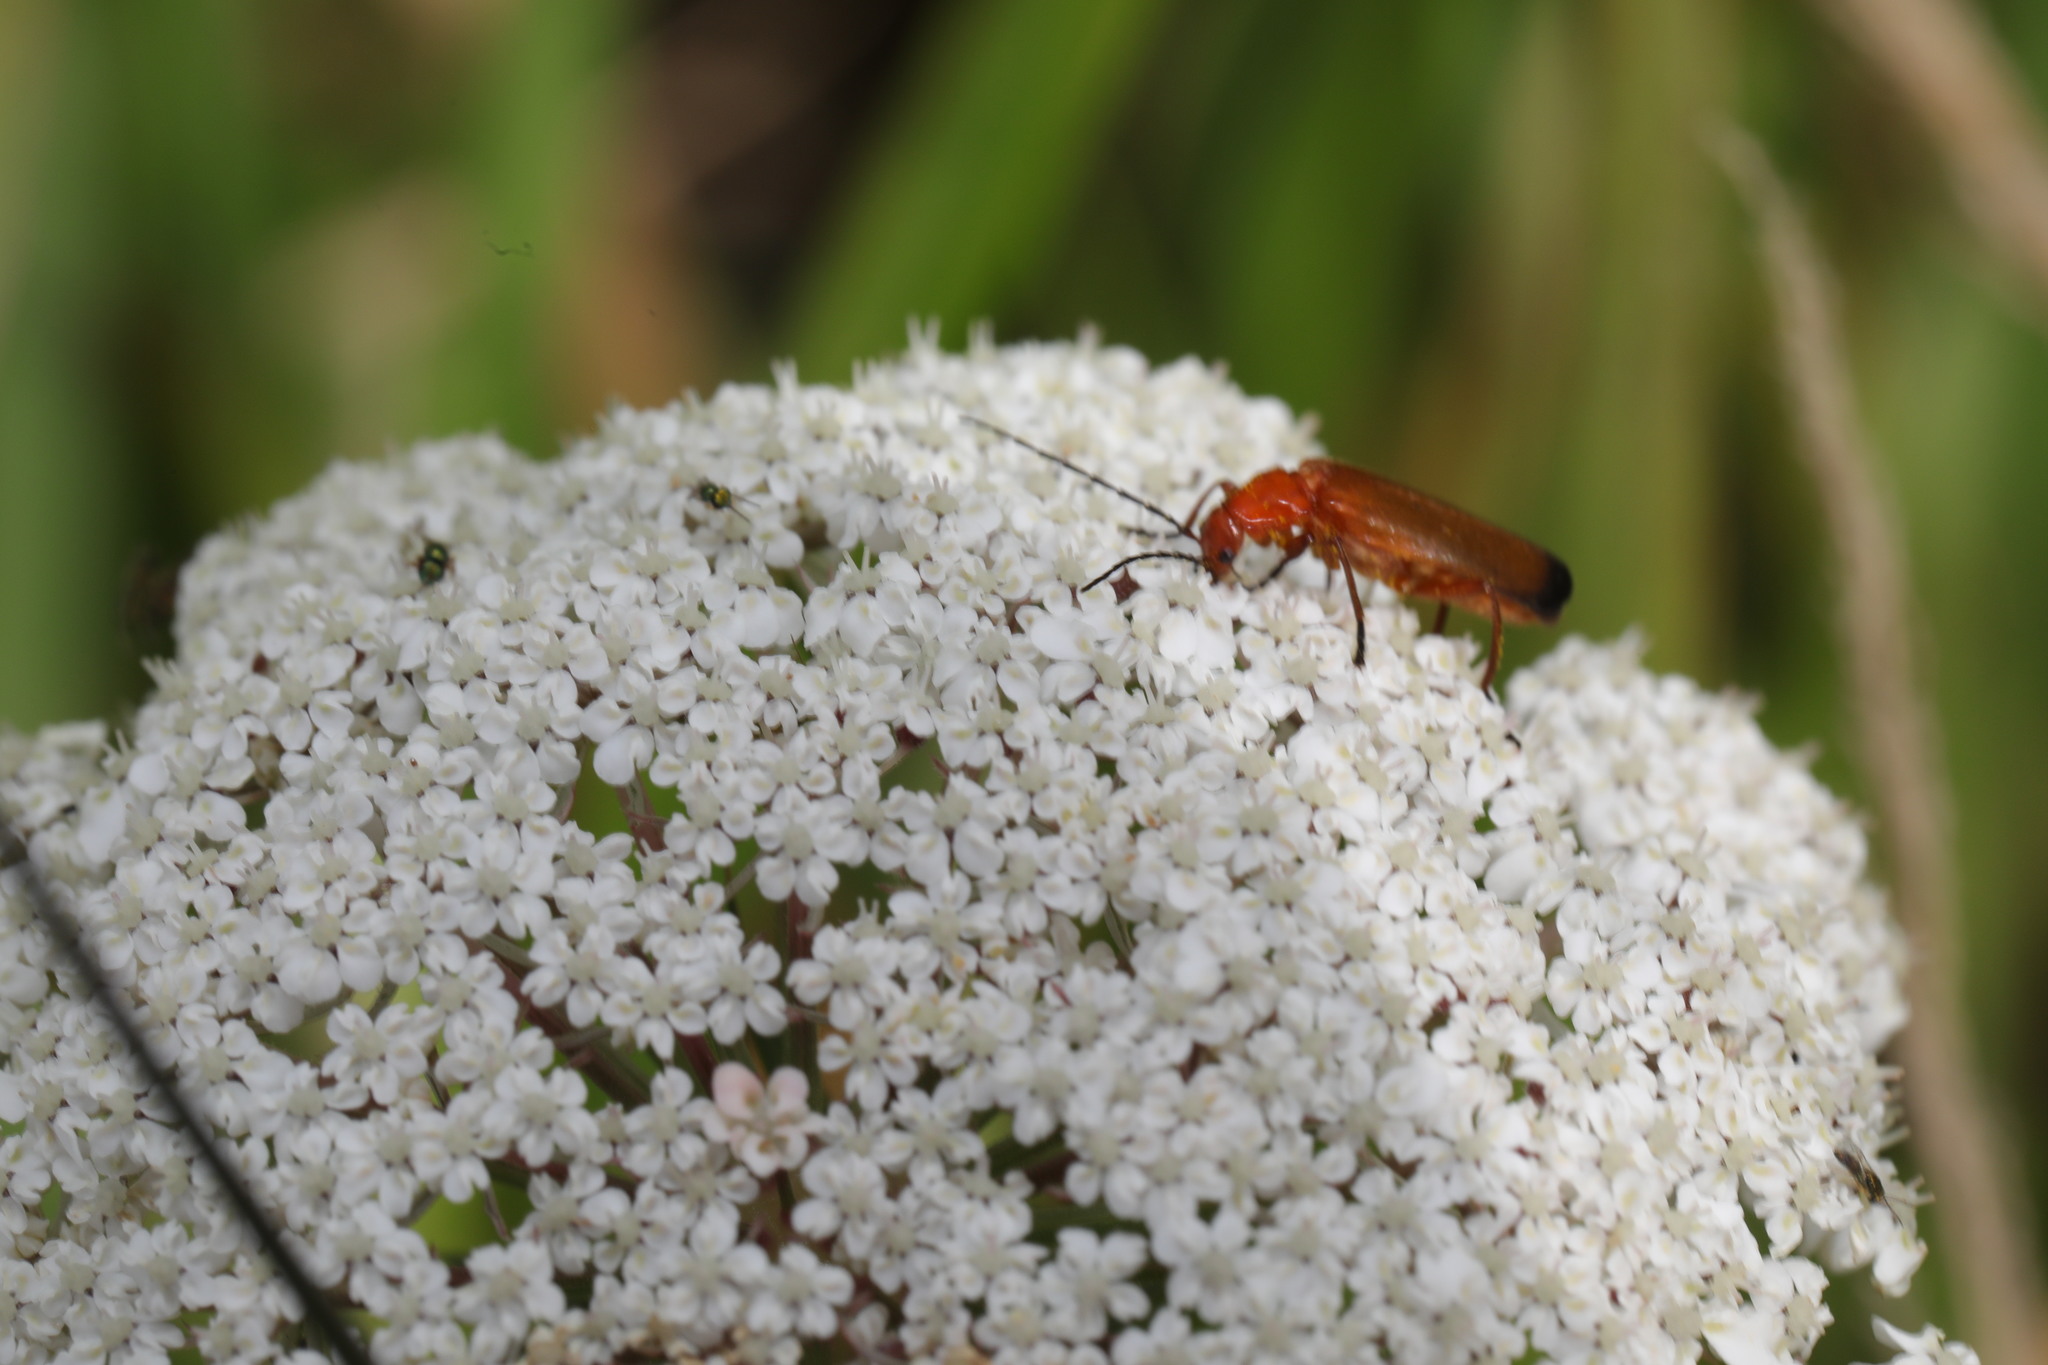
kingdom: Animalia
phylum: Arthropoda
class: Insecta
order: Coleoptera
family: Cantharidae
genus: Rhagonycha
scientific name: Rhagonycha fulva
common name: Common red soldier beetle
